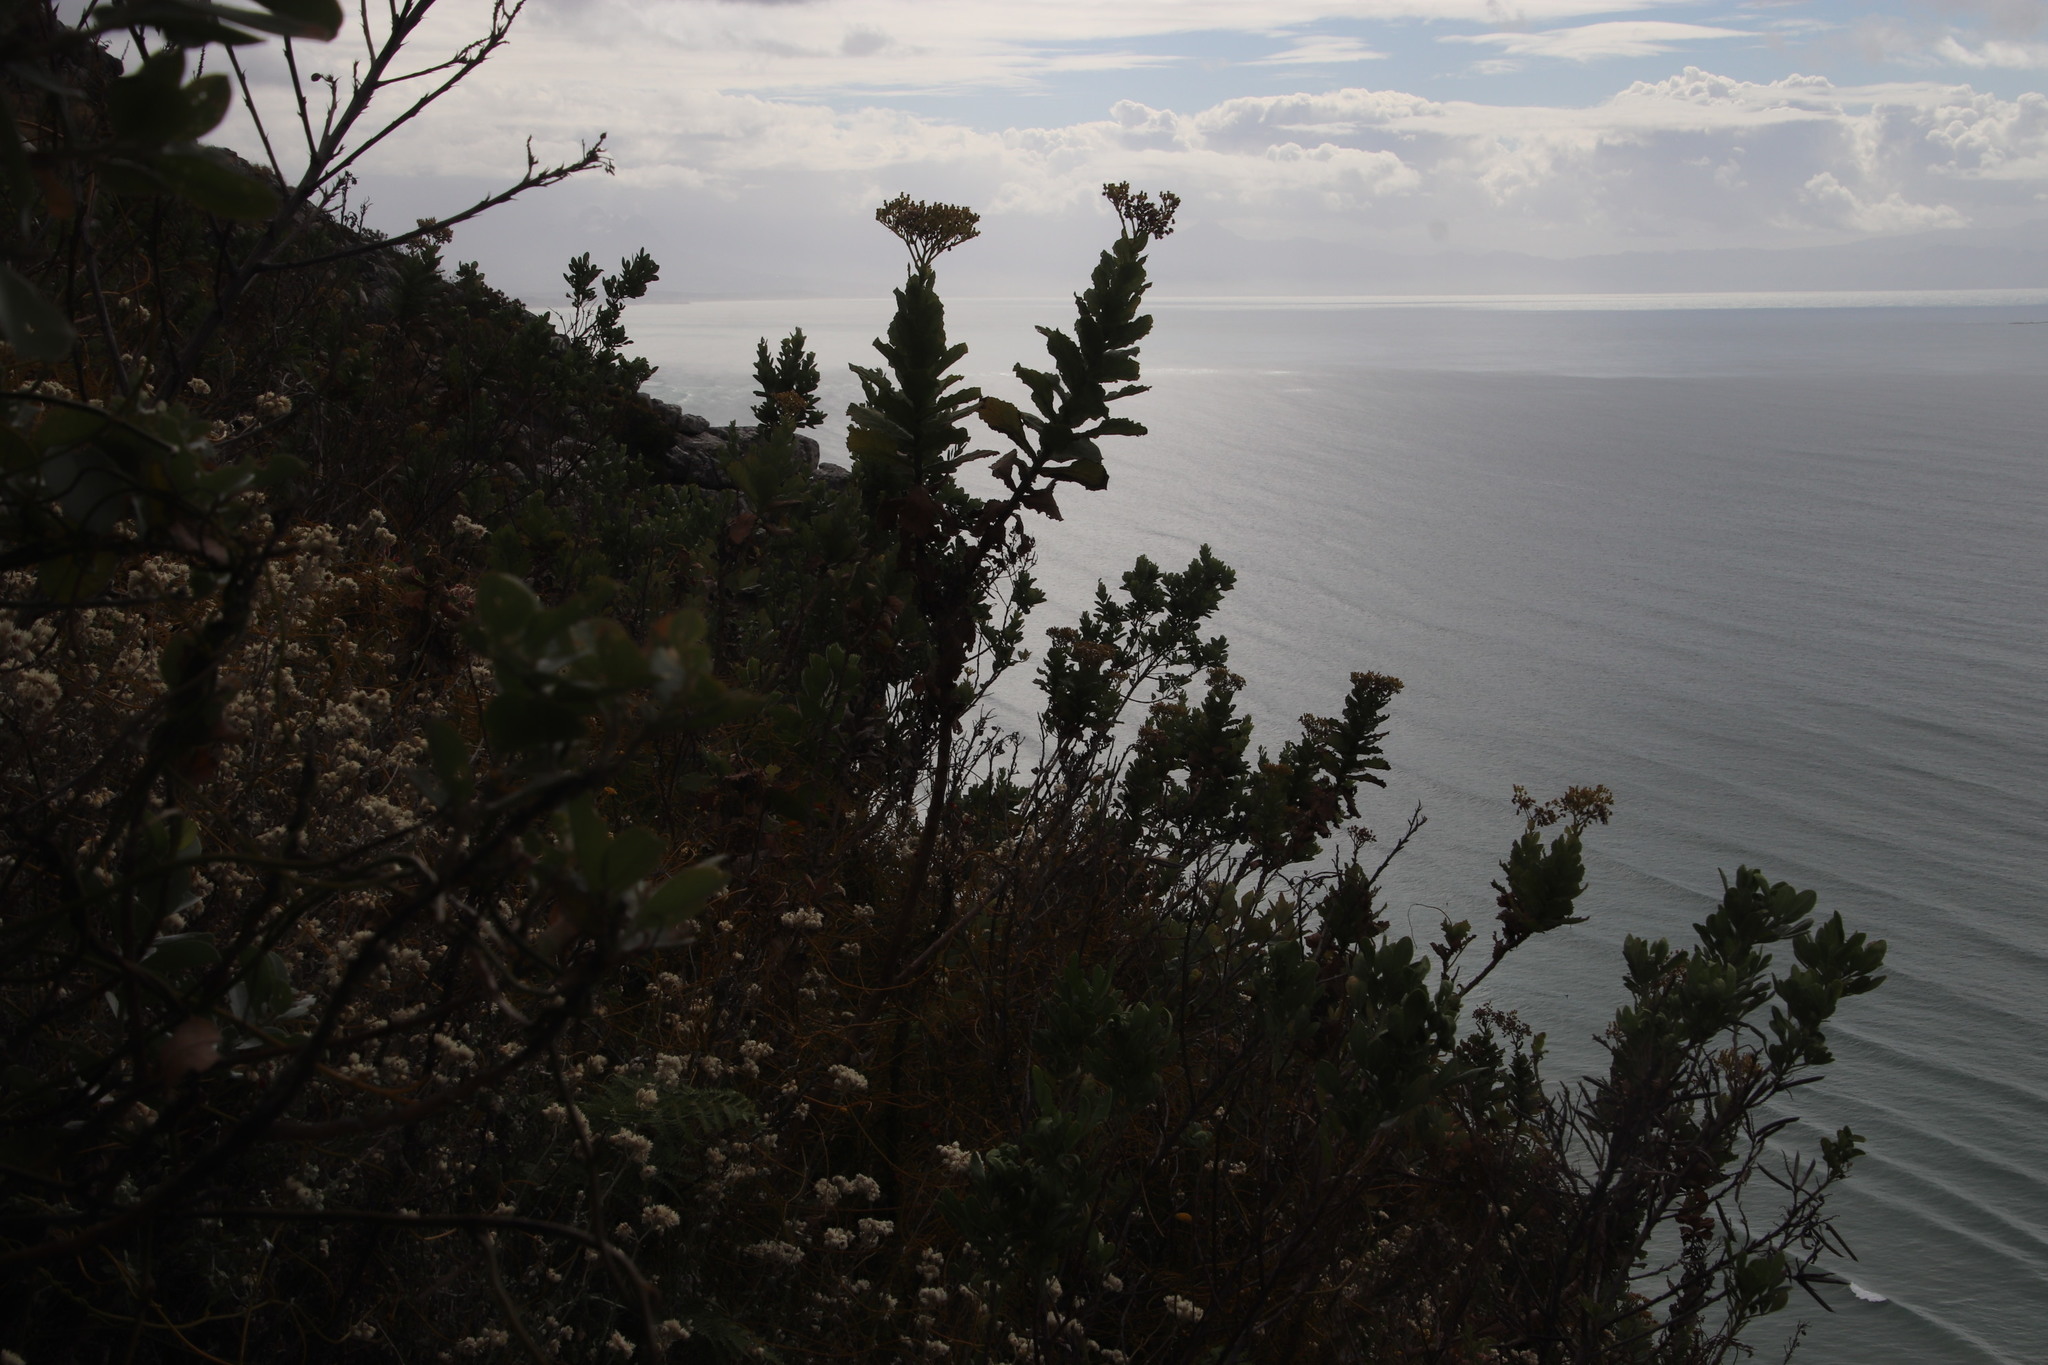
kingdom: Plantae
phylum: Tracheophyta
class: Magnoliopsida
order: Asterales
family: Asteraceae
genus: Senecio
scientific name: Senecio rigidus
